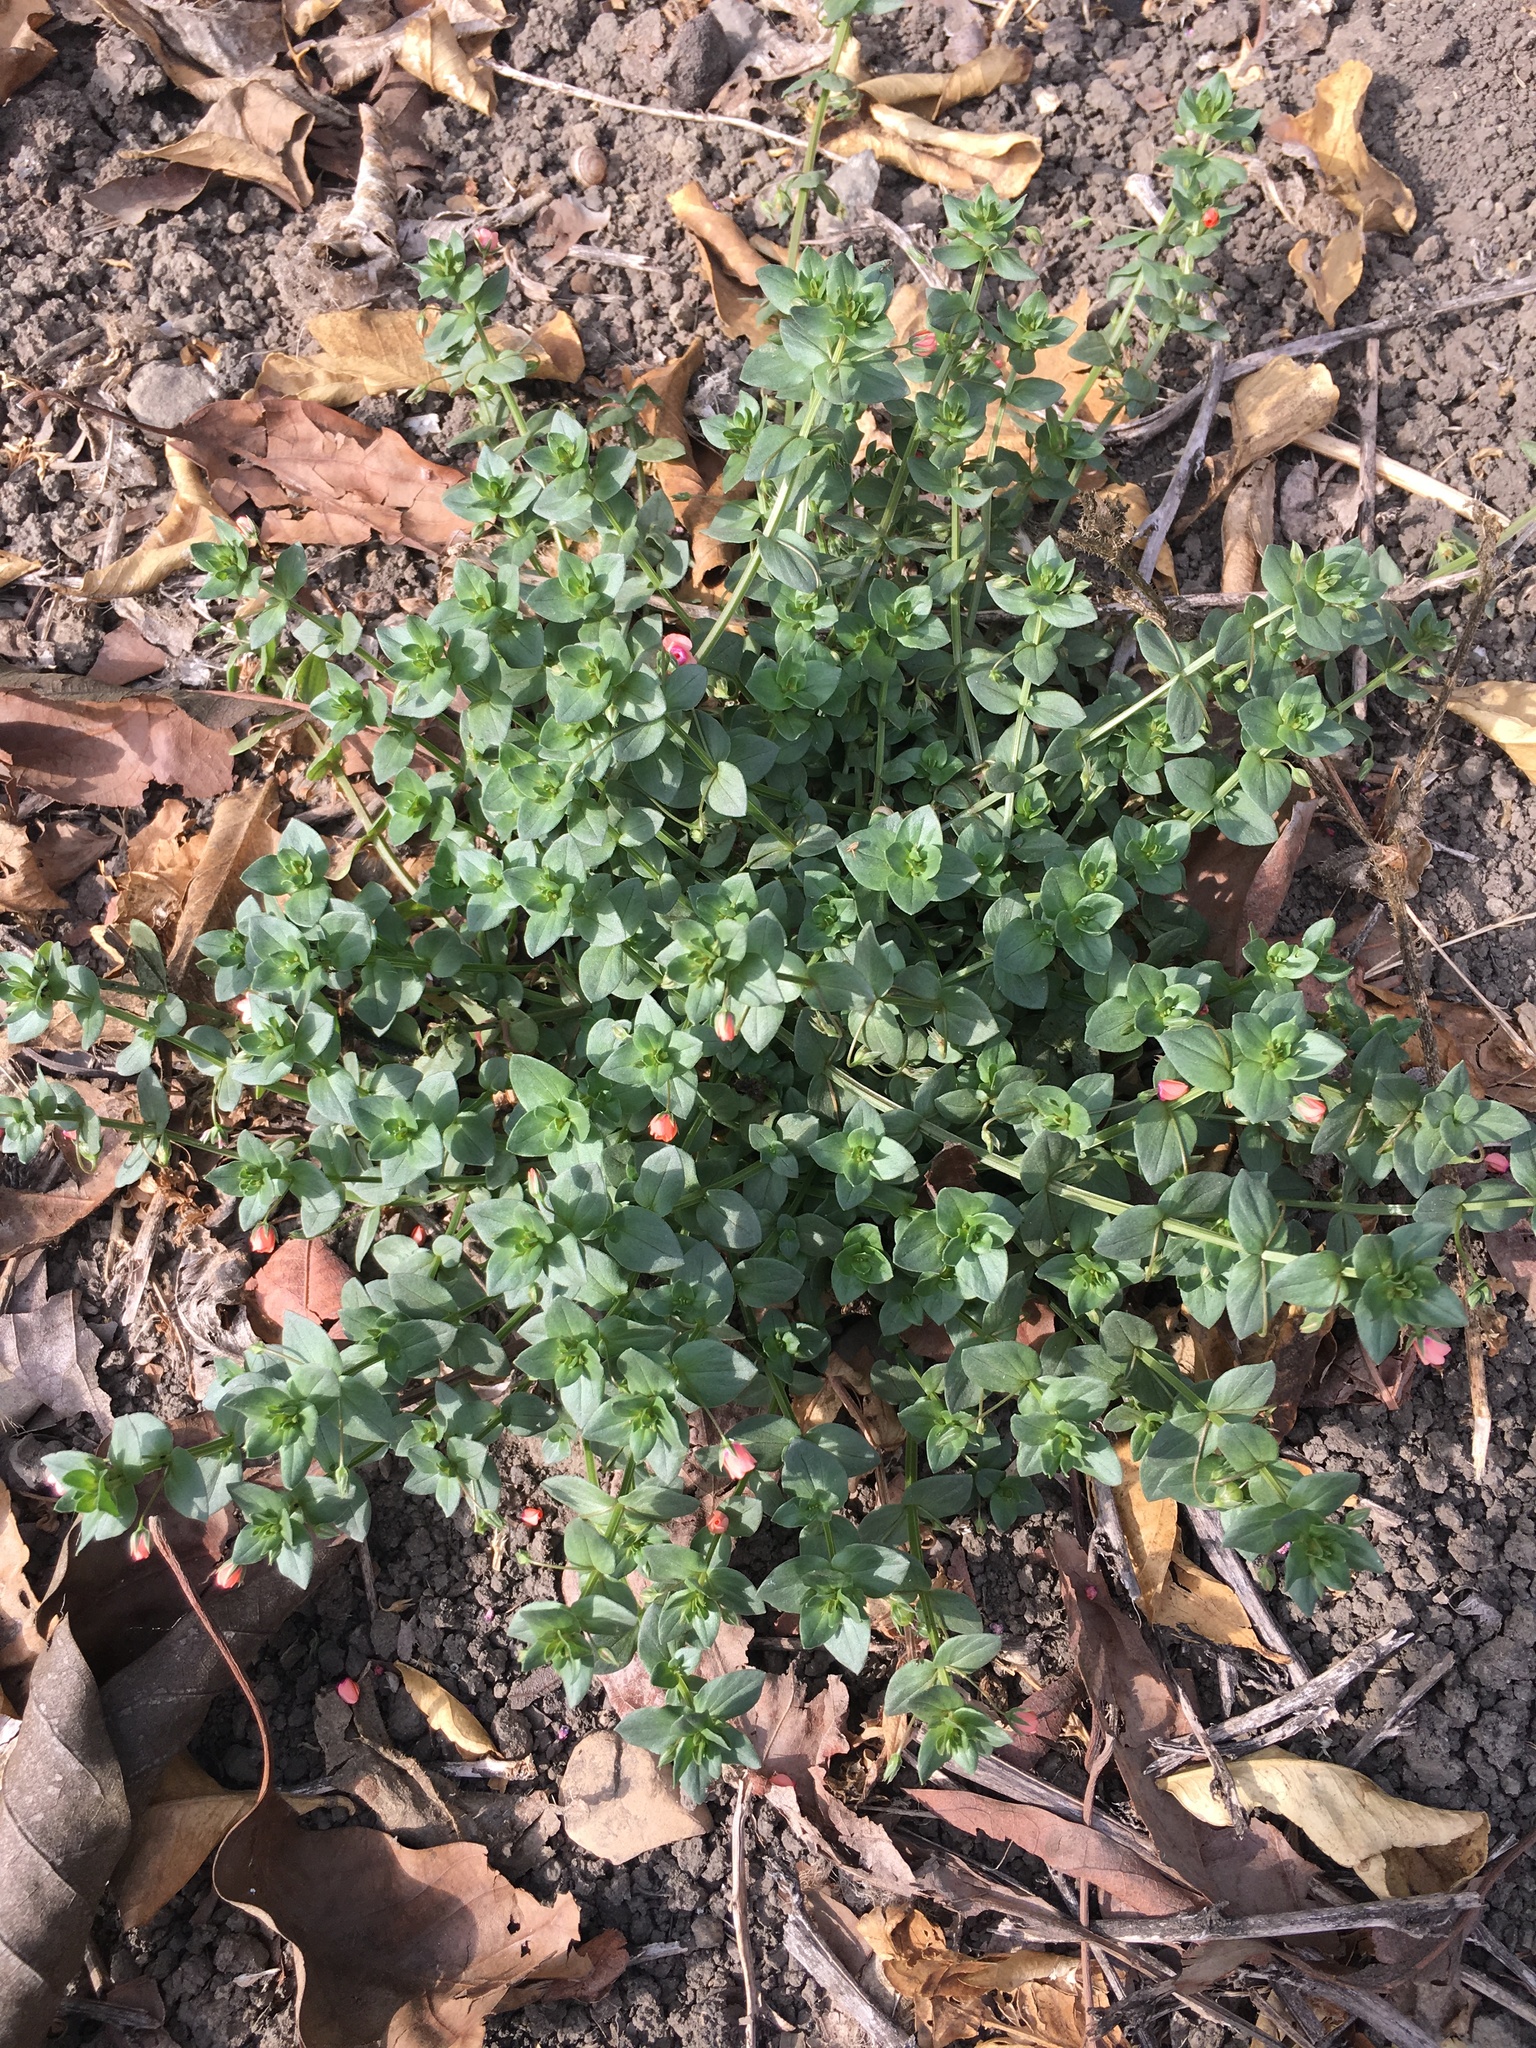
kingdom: Plantae
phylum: Tracheophyta
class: Magnoliopsida
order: Ericales
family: Primulaceae
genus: Lysimachia
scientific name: Lysimachia arvensis
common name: Scarlet pimpernel
